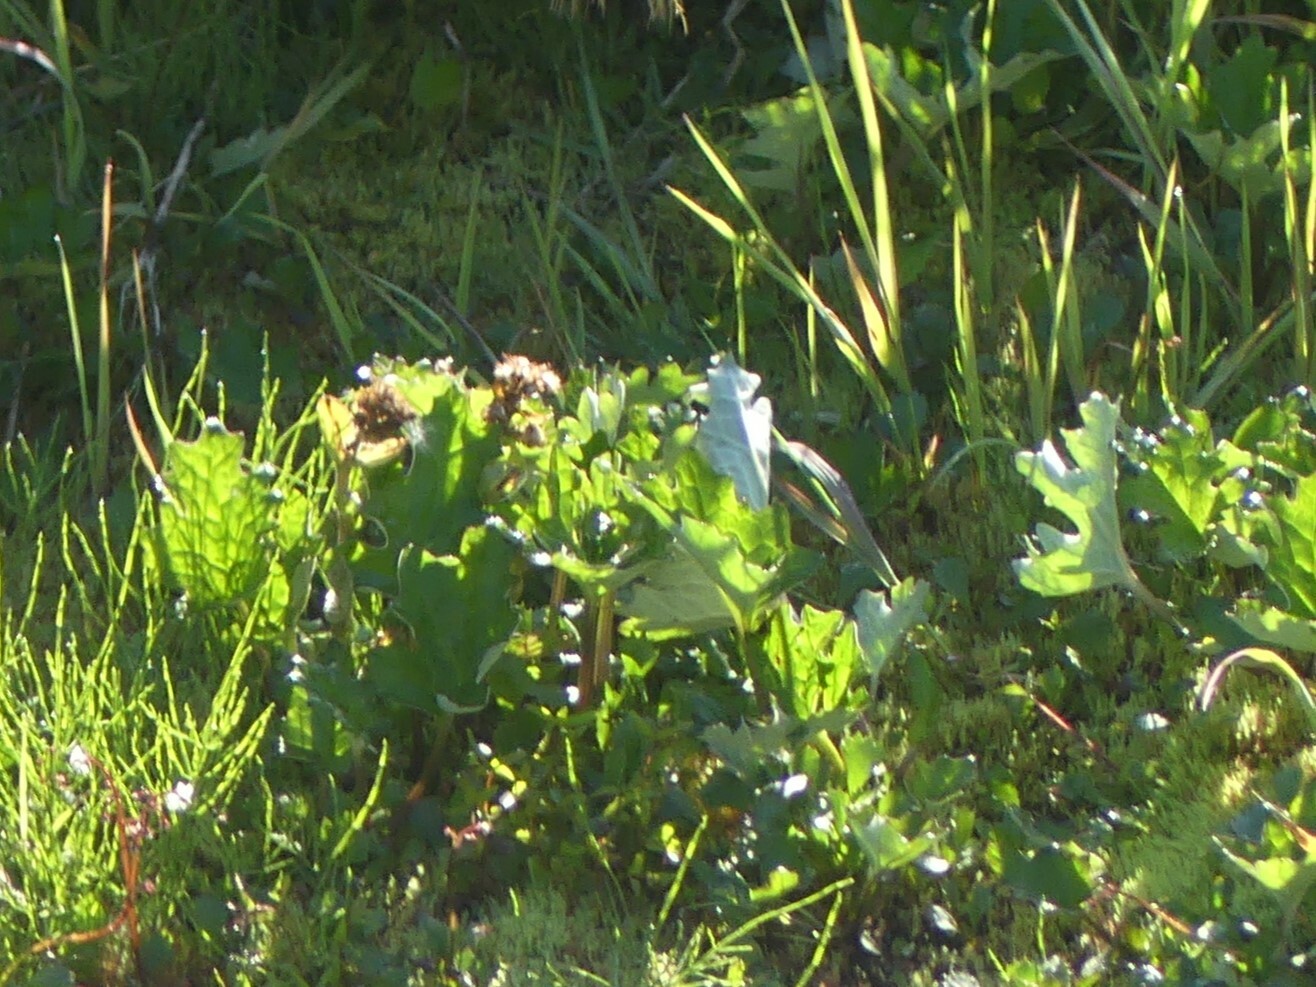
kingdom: Plantae
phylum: Tracheophyta
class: Magnoliopsida
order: Asterales
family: Asteraceae
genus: Petasites
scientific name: Petasites frigidus
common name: Arctic butterbur
